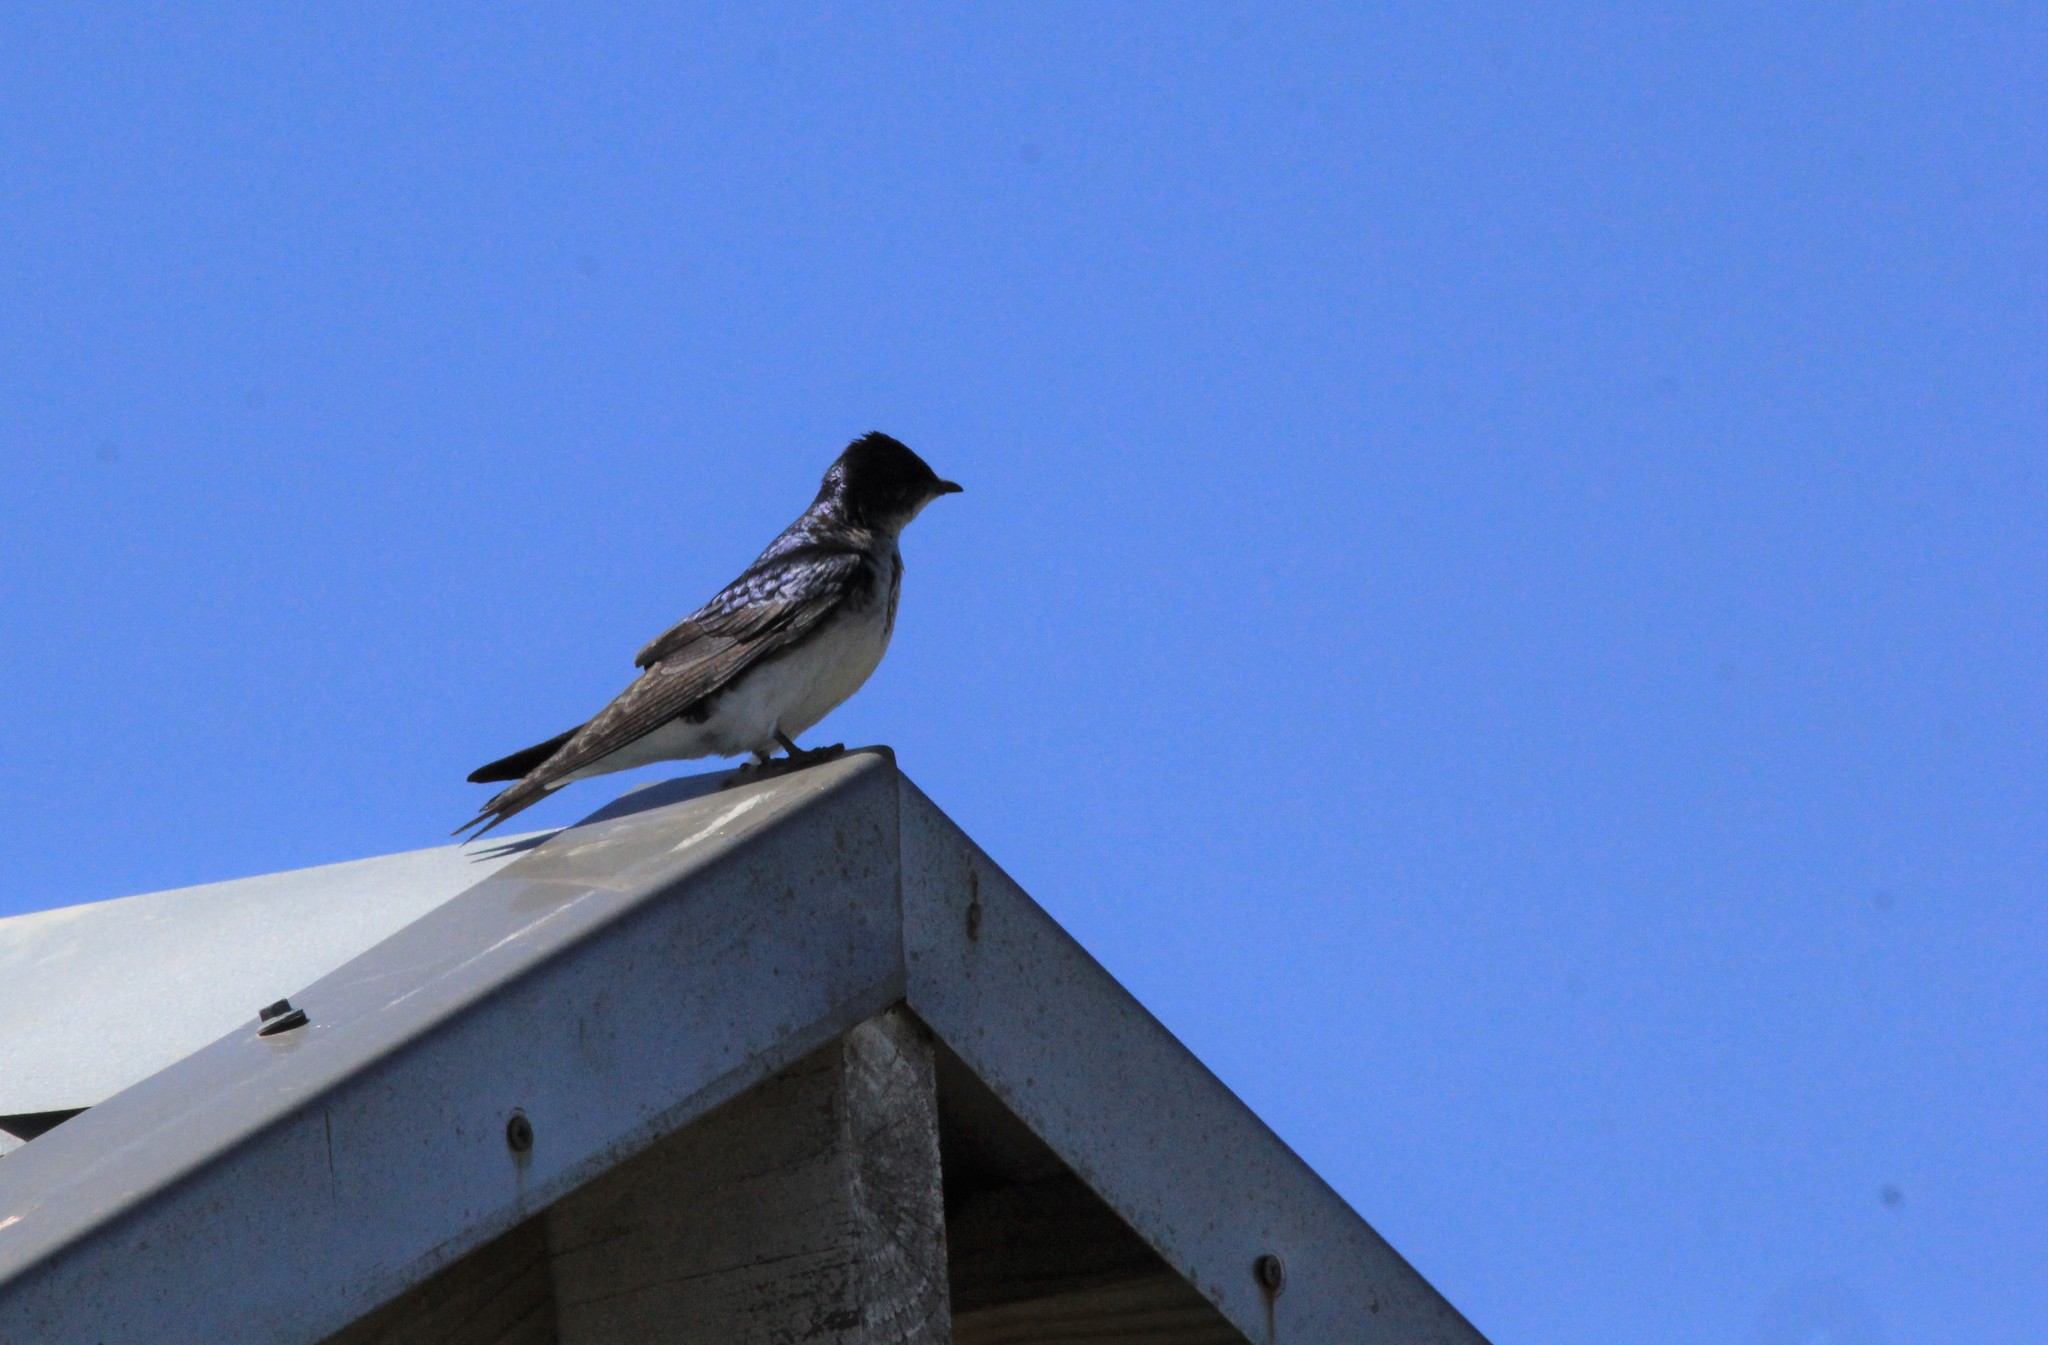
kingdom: Animalia
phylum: Chordata
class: Aves
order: Passeriformes
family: Hirundinidae
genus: Progne
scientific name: Progne chalybea
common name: Grey-breasted martin
